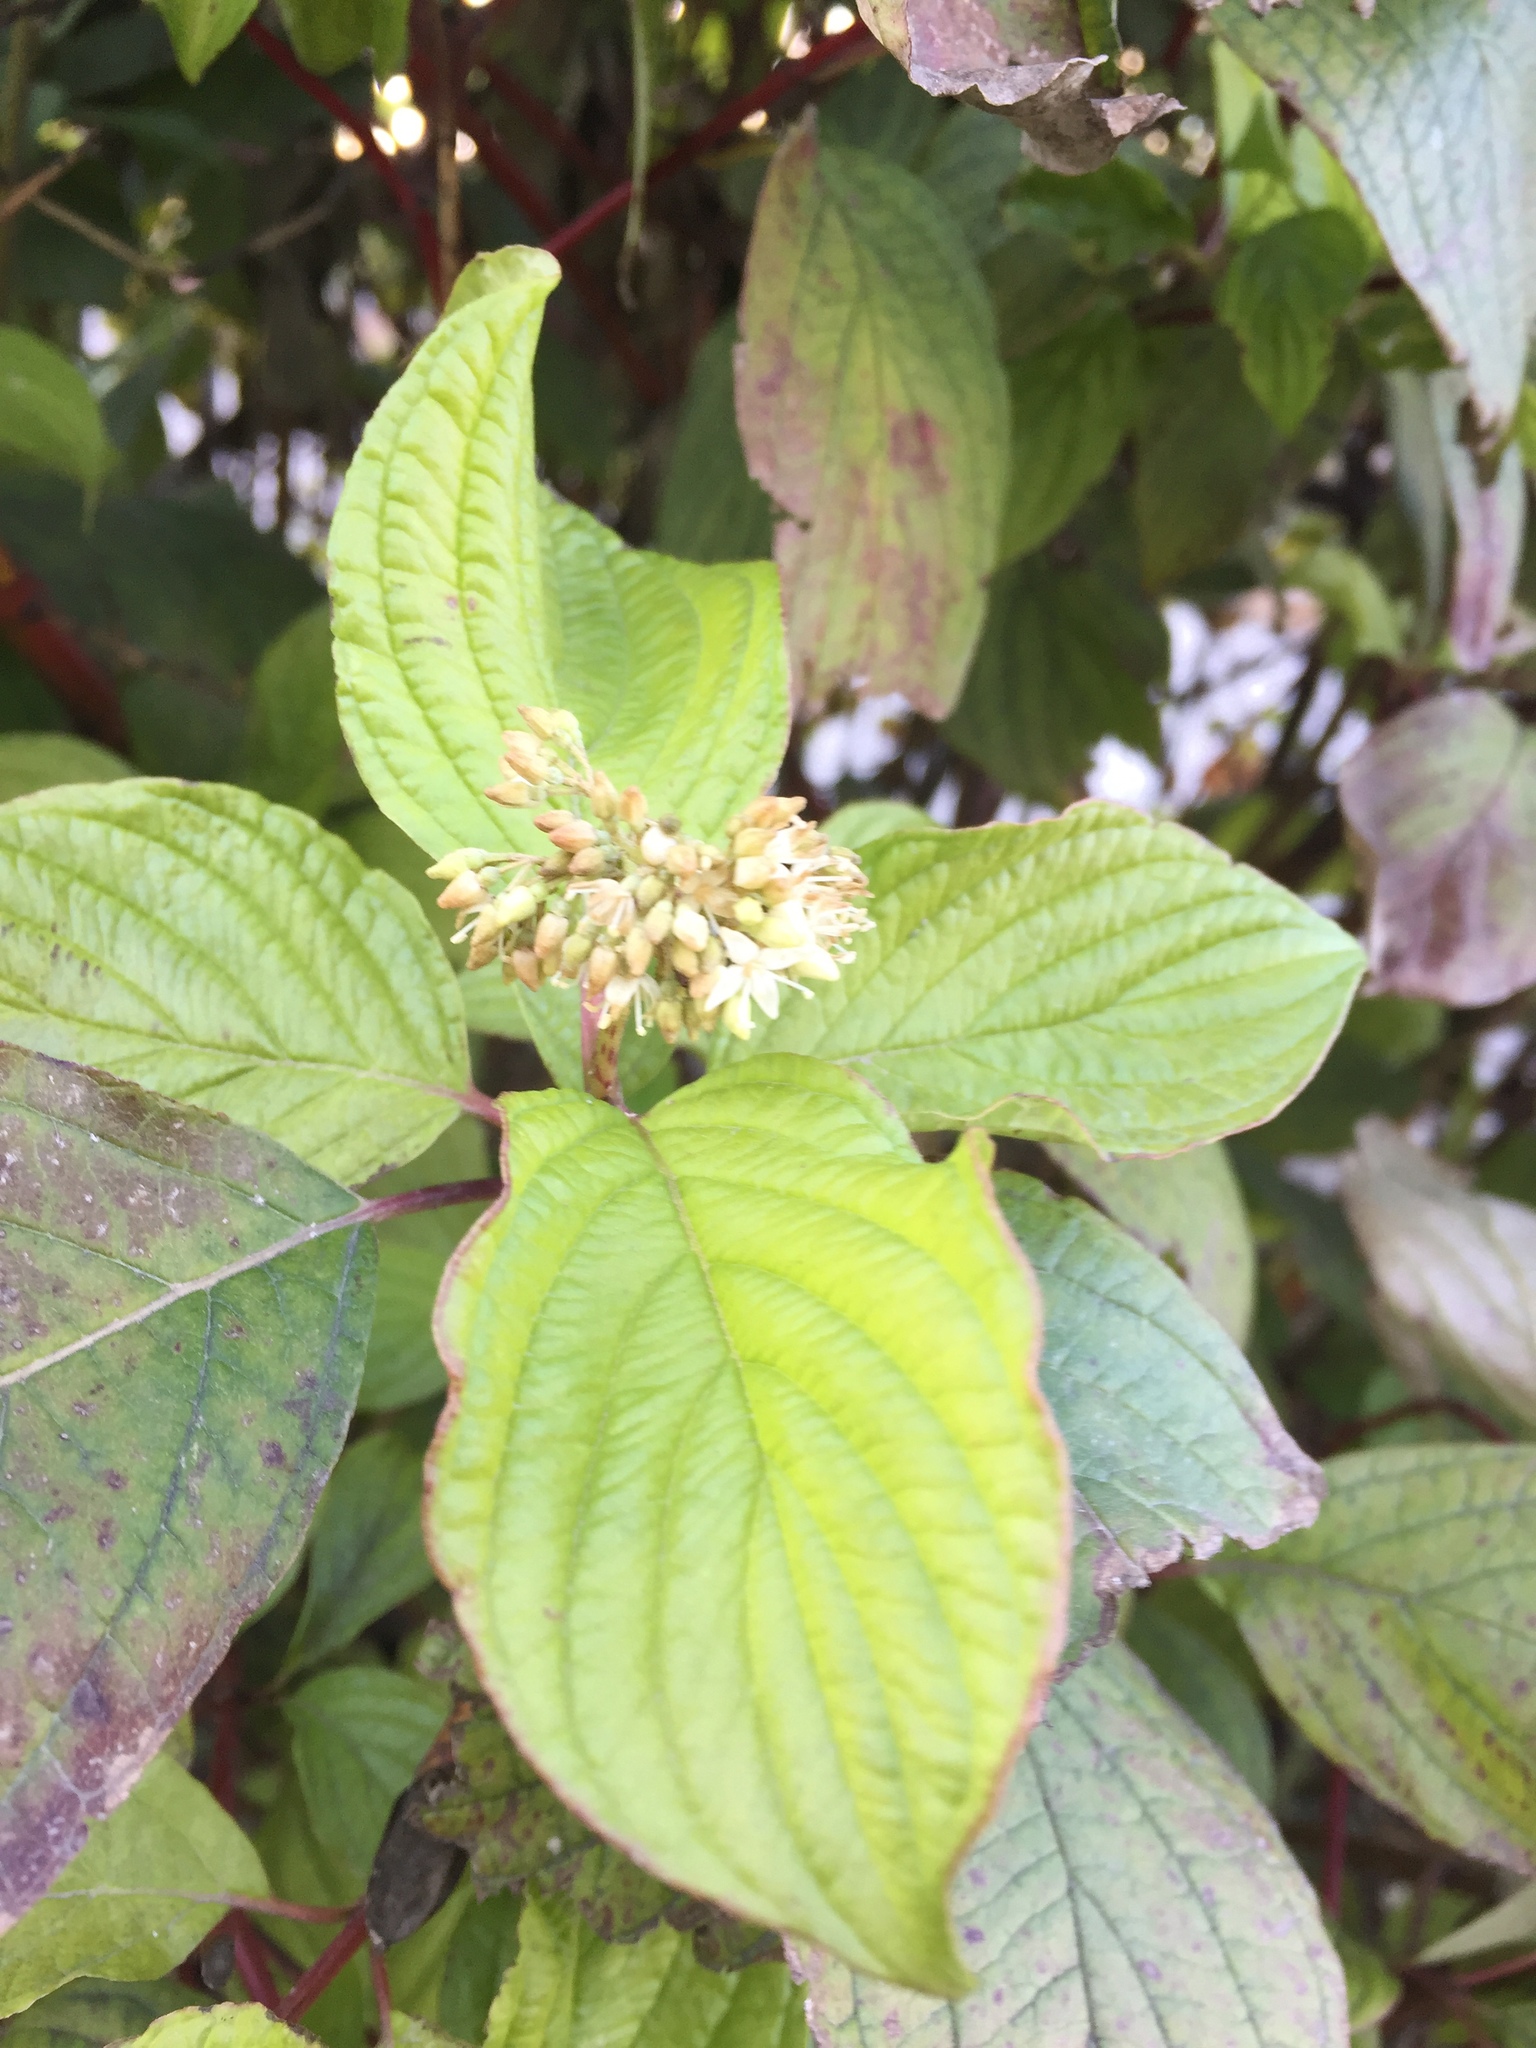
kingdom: Plantae
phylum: Tracheophyta
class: Magnoliopsida
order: Cornales
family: Cornaceae
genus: Cornus
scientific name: Cornus alba
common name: White dogwood
